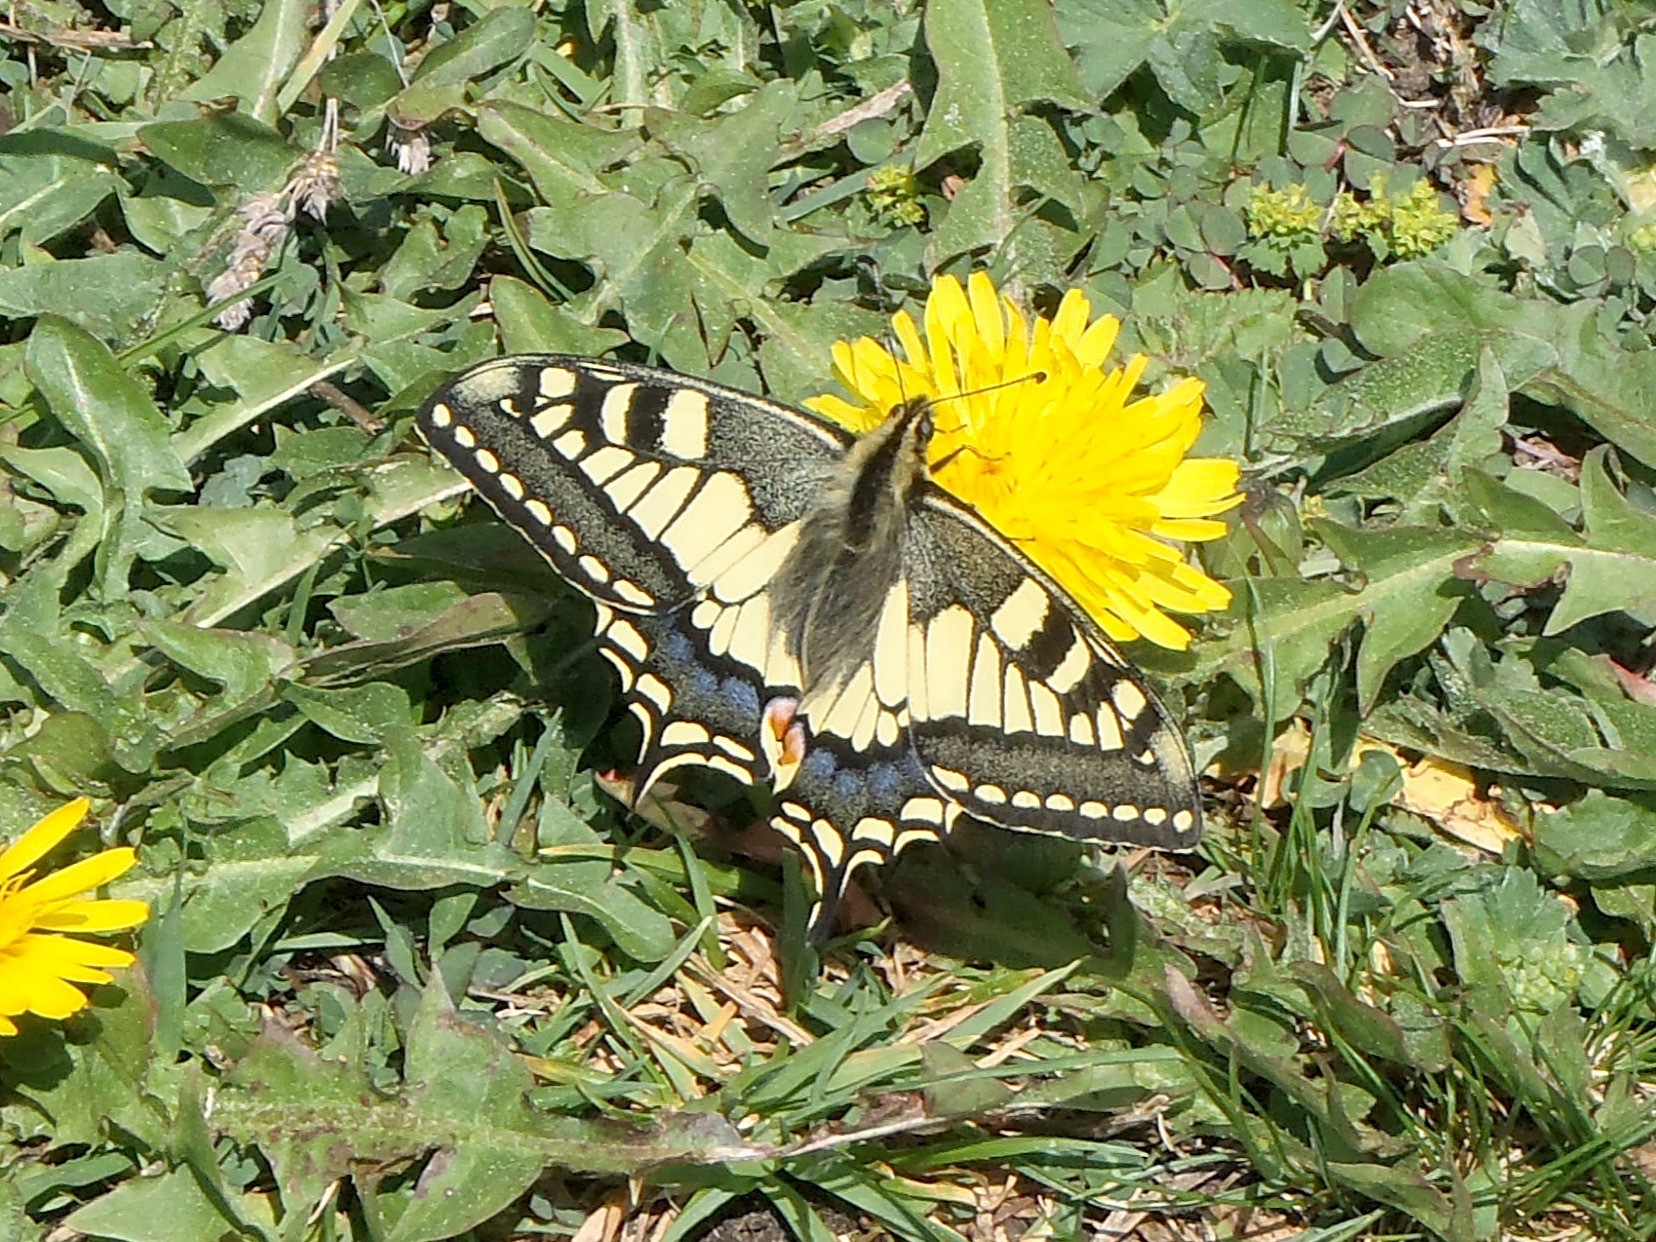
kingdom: Animalia
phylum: Arthropoda
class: Insecta
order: Lepidoptera
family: Papilionidae
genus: Papilio
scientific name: Papilio machaon
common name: Swallowtail
